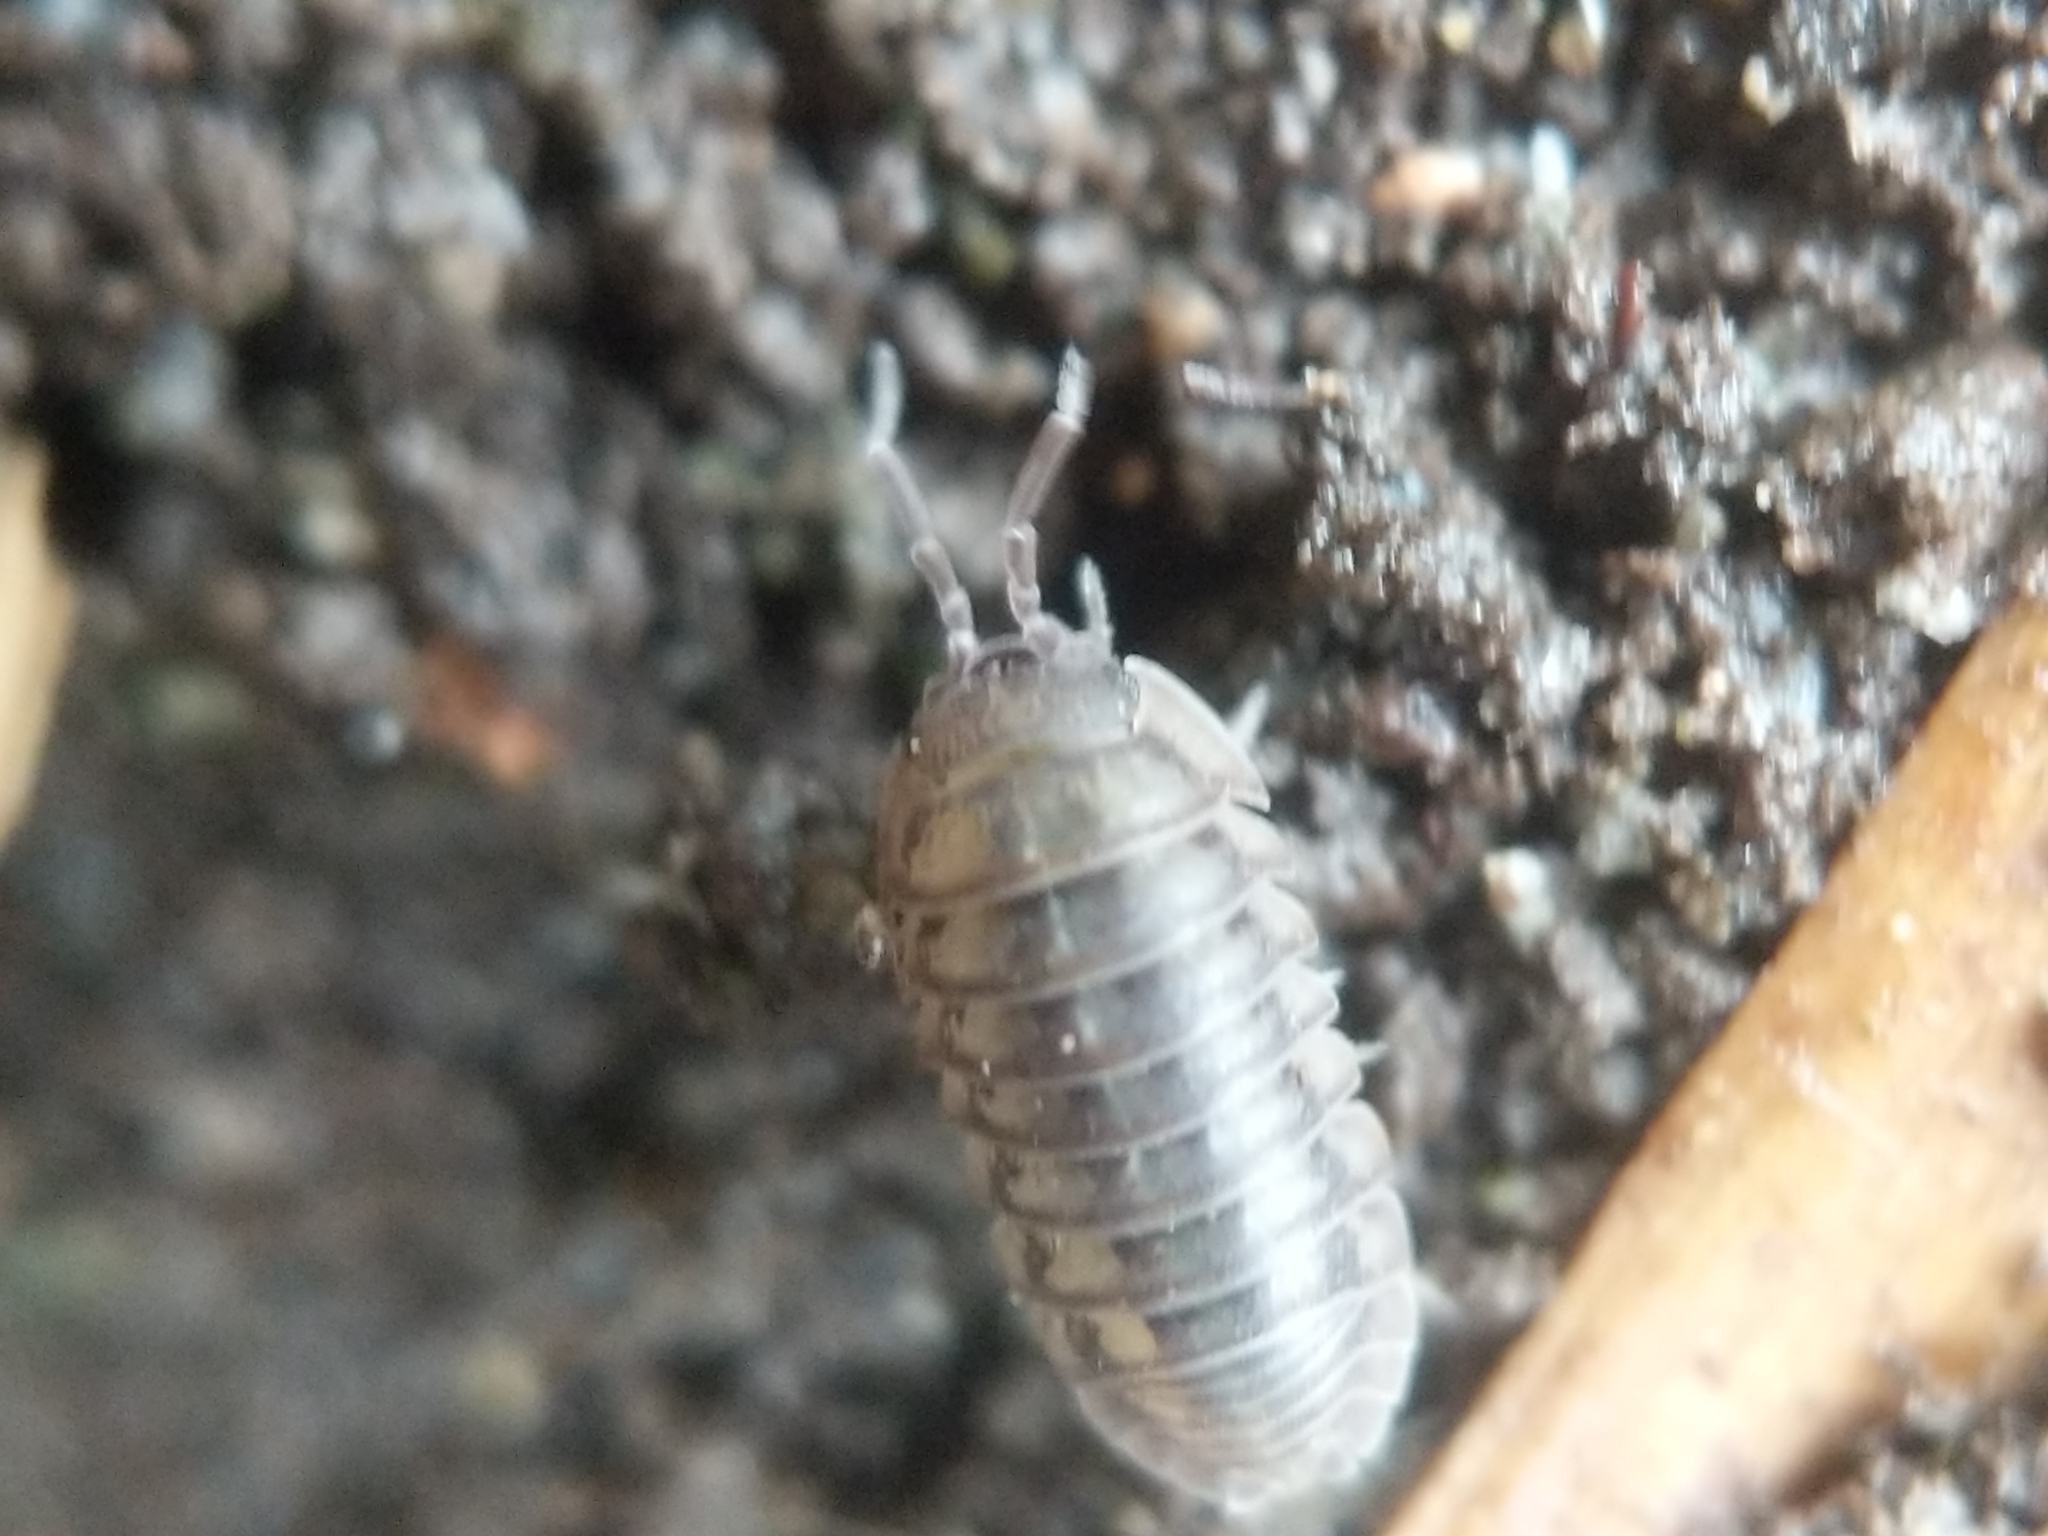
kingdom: Animalia
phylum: Arthropoda
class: Malacostraca
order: Isopoda
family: Armadillidiidae
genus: Armadillidium
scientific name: Armadillidium nasatum
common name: Isopod
